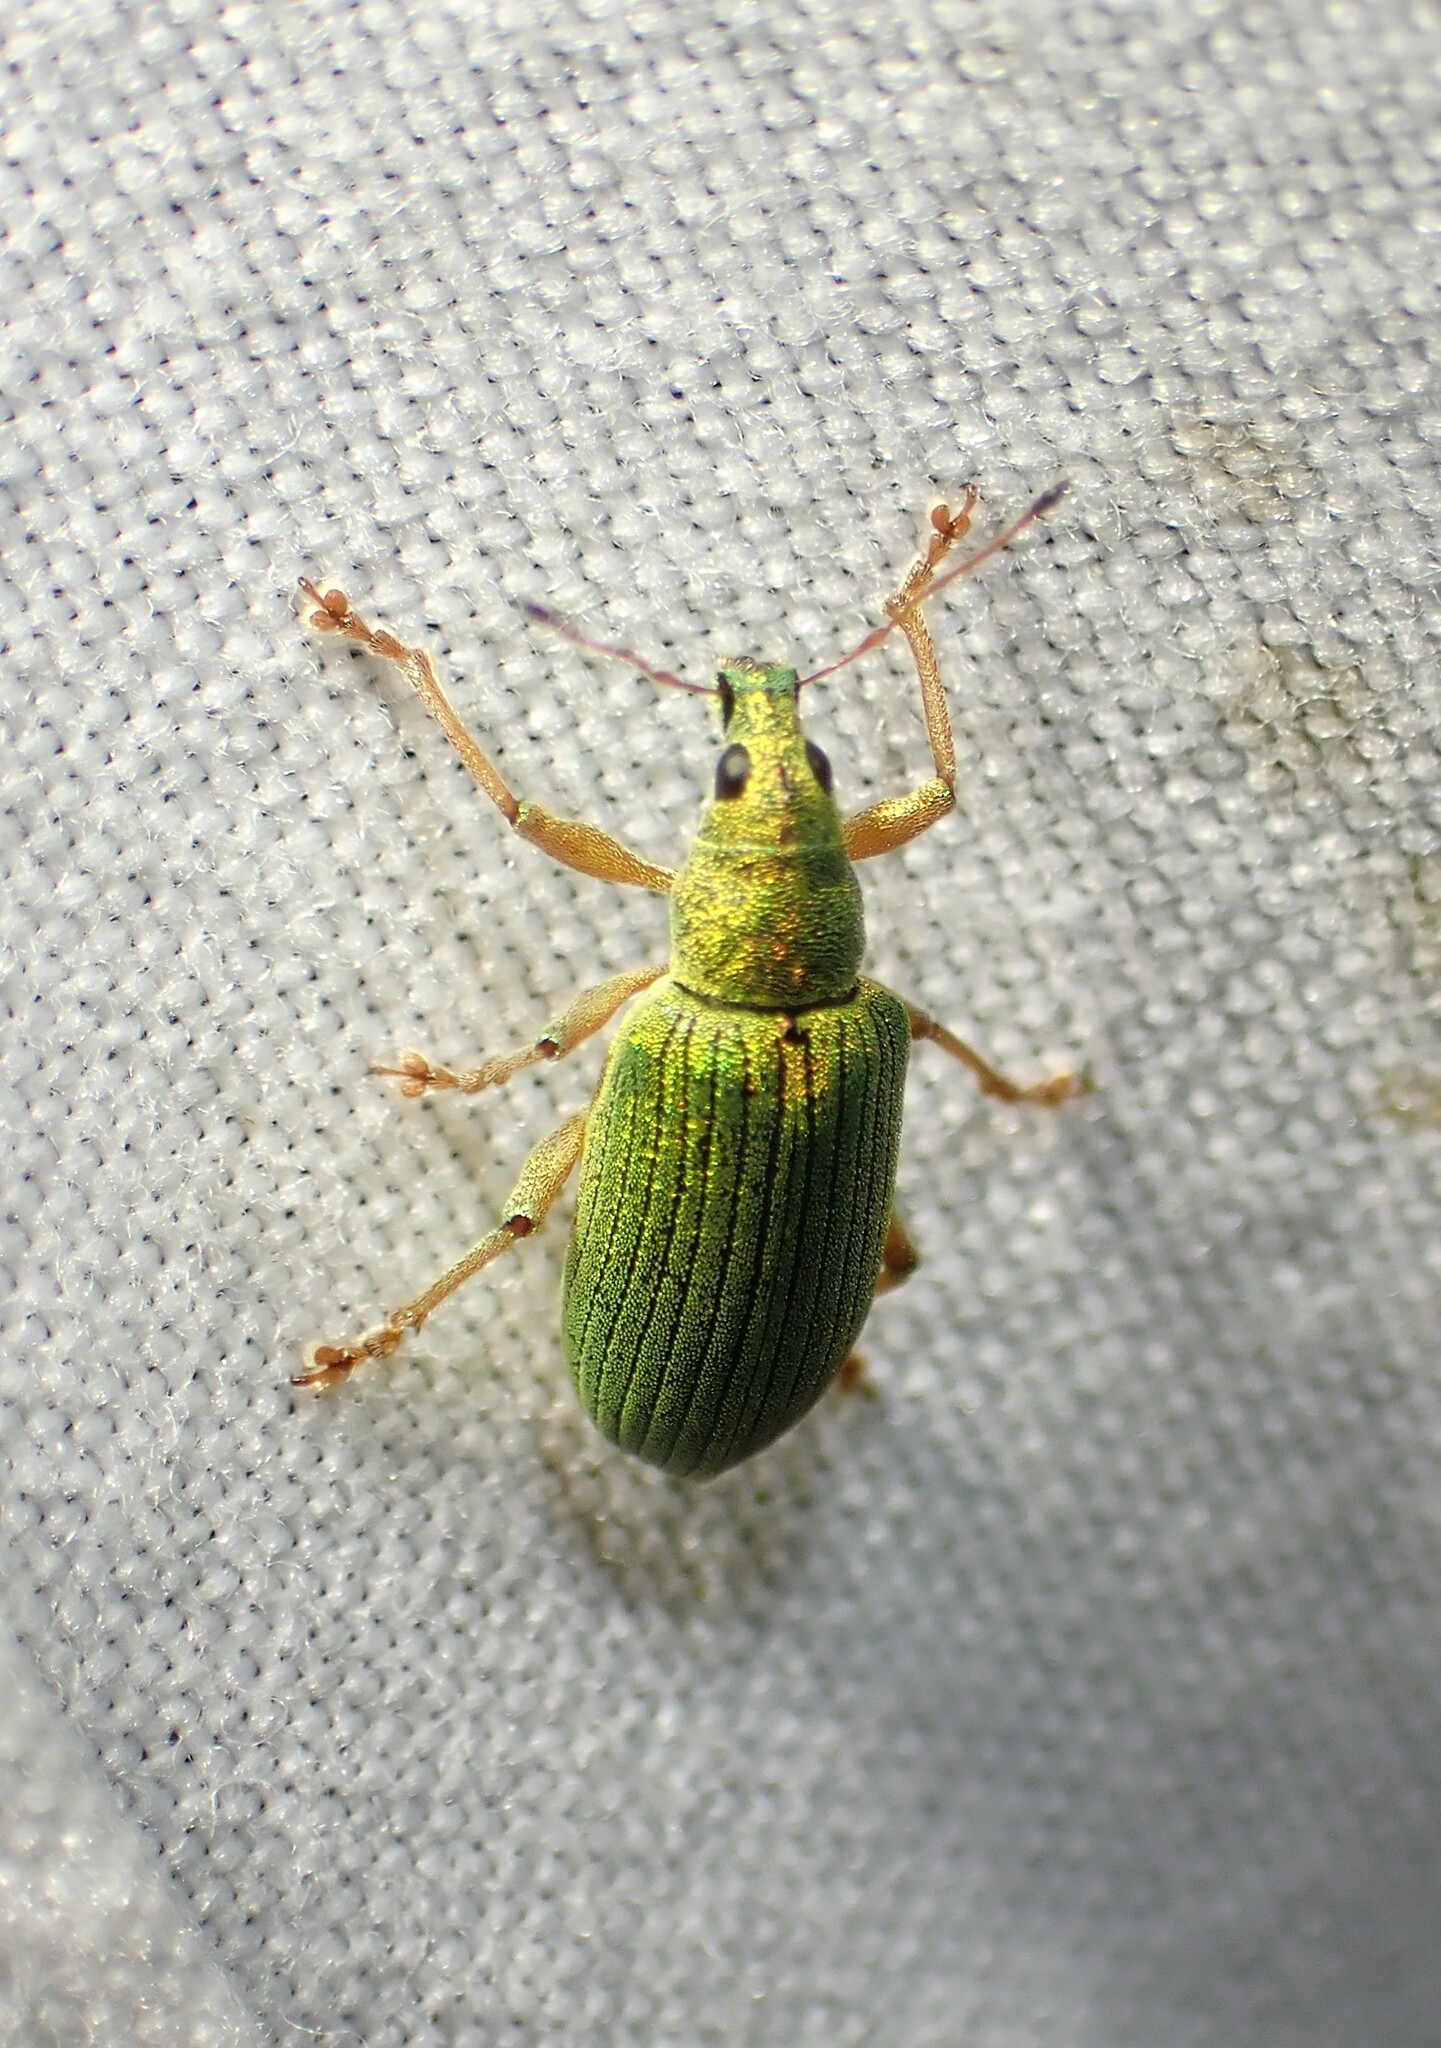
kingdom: Animalia
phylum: Arthropoda
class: Insecta
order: Coleoptera
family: Curculionidae
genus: Polydrusus
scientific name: Polydrusus formosus
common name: Weevil
